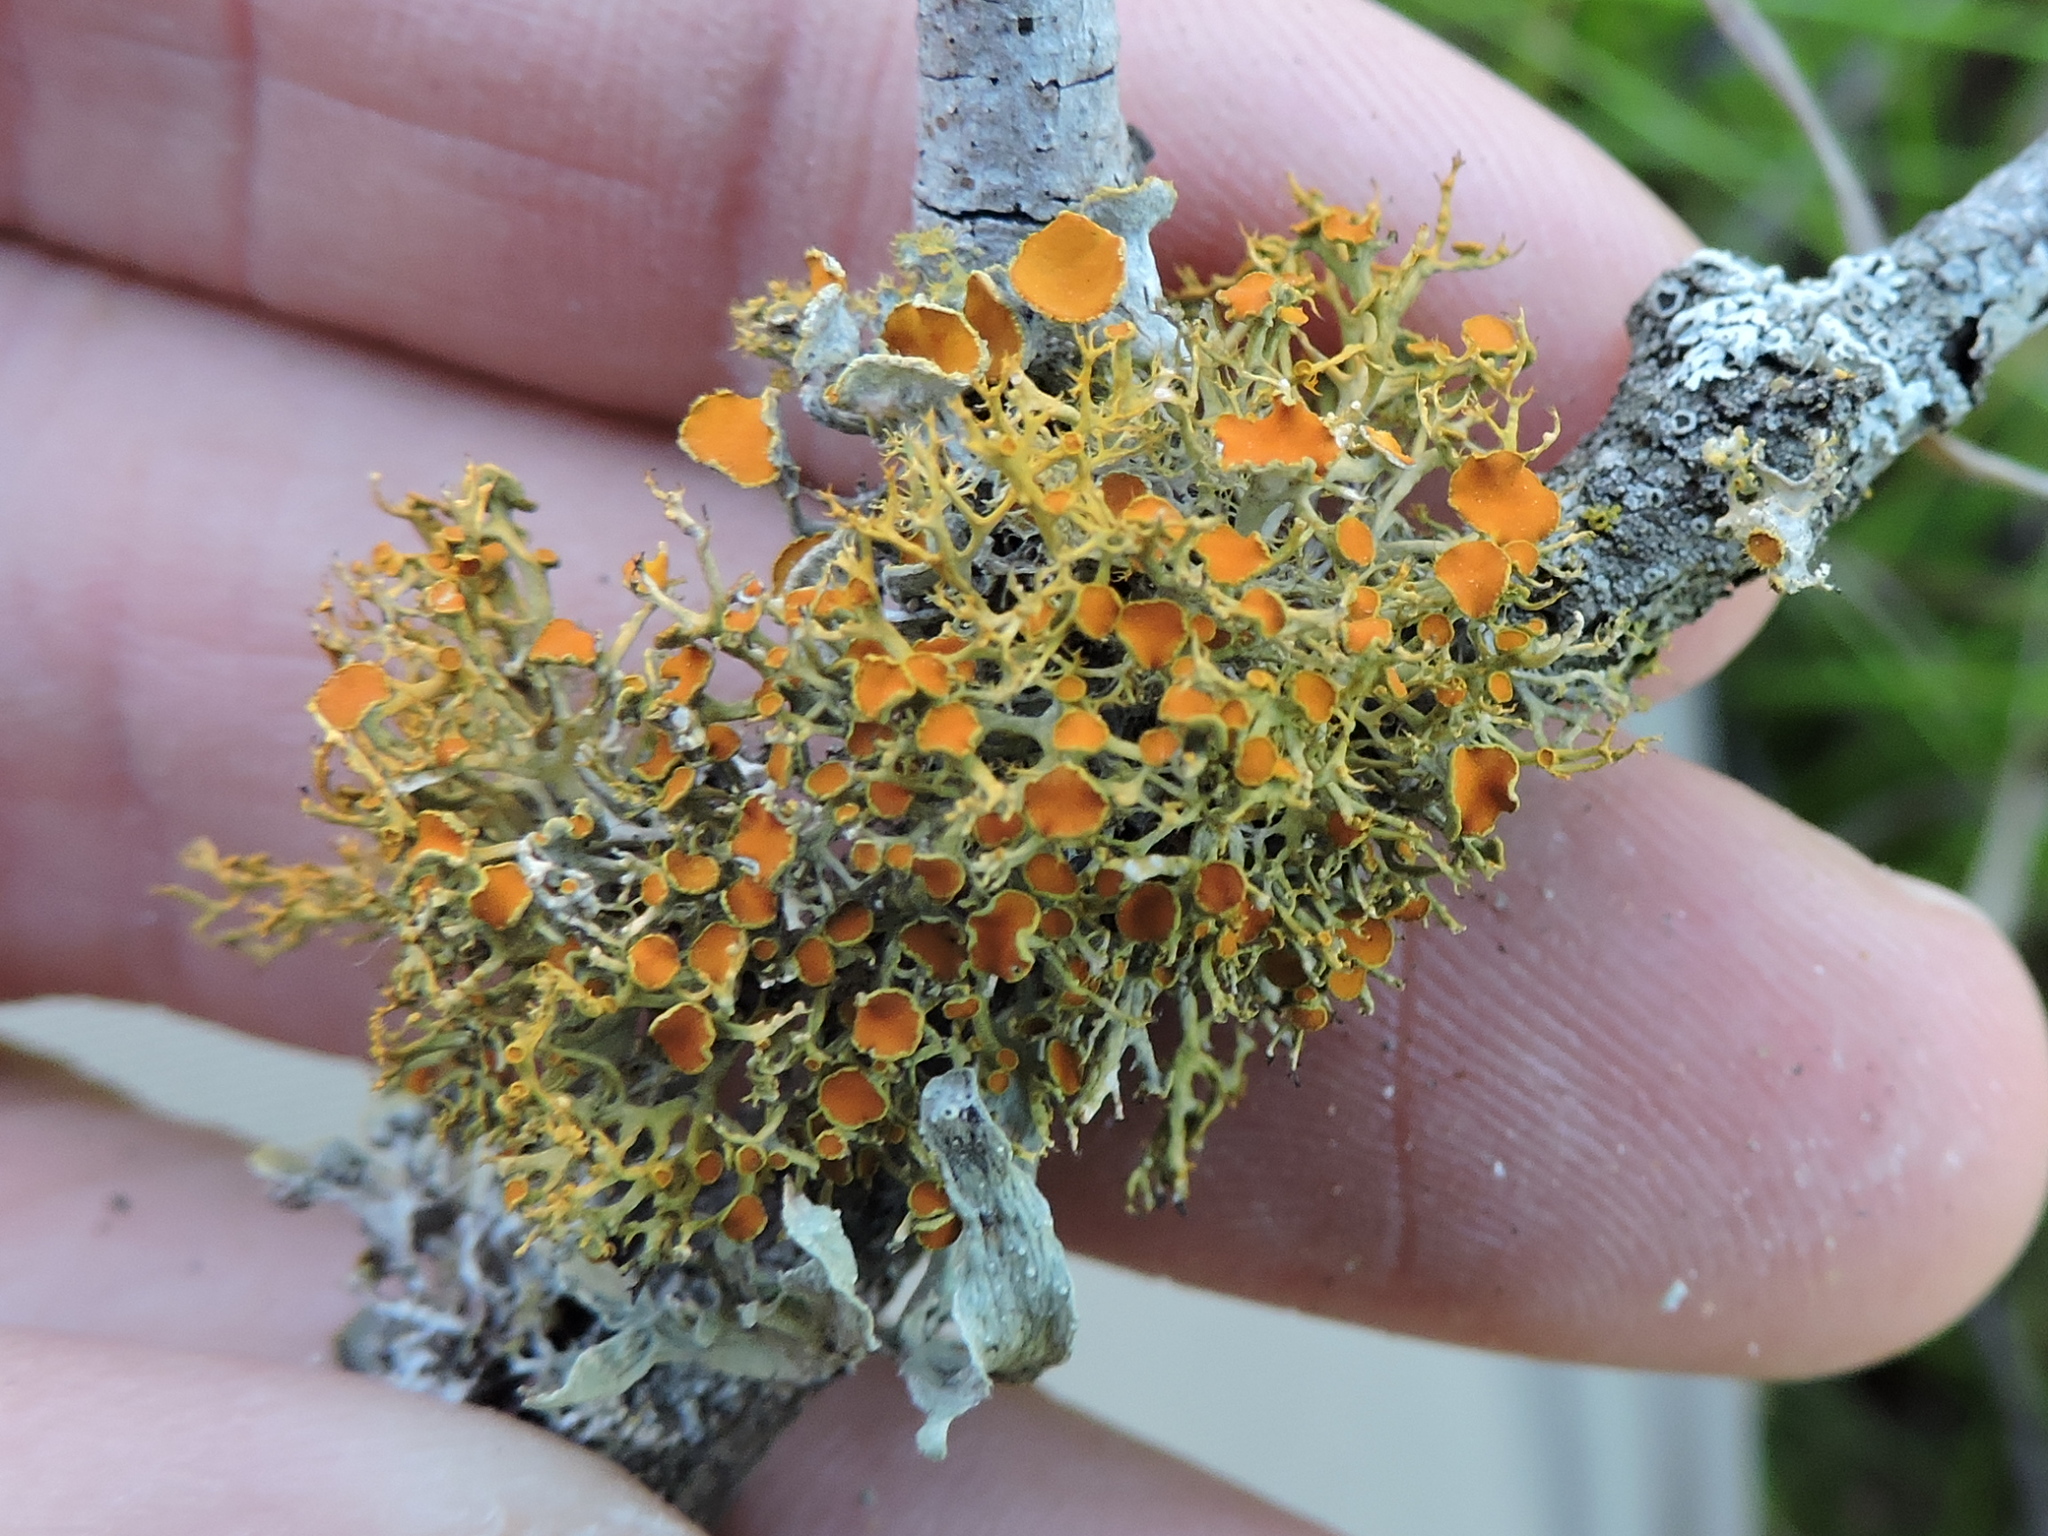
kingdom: Fungi
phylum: Ascomycota
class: Lecanoromycetes
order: Teloschistales
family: Teloschistaceae
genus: Teloschistes
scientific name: Teloschistes exilis
